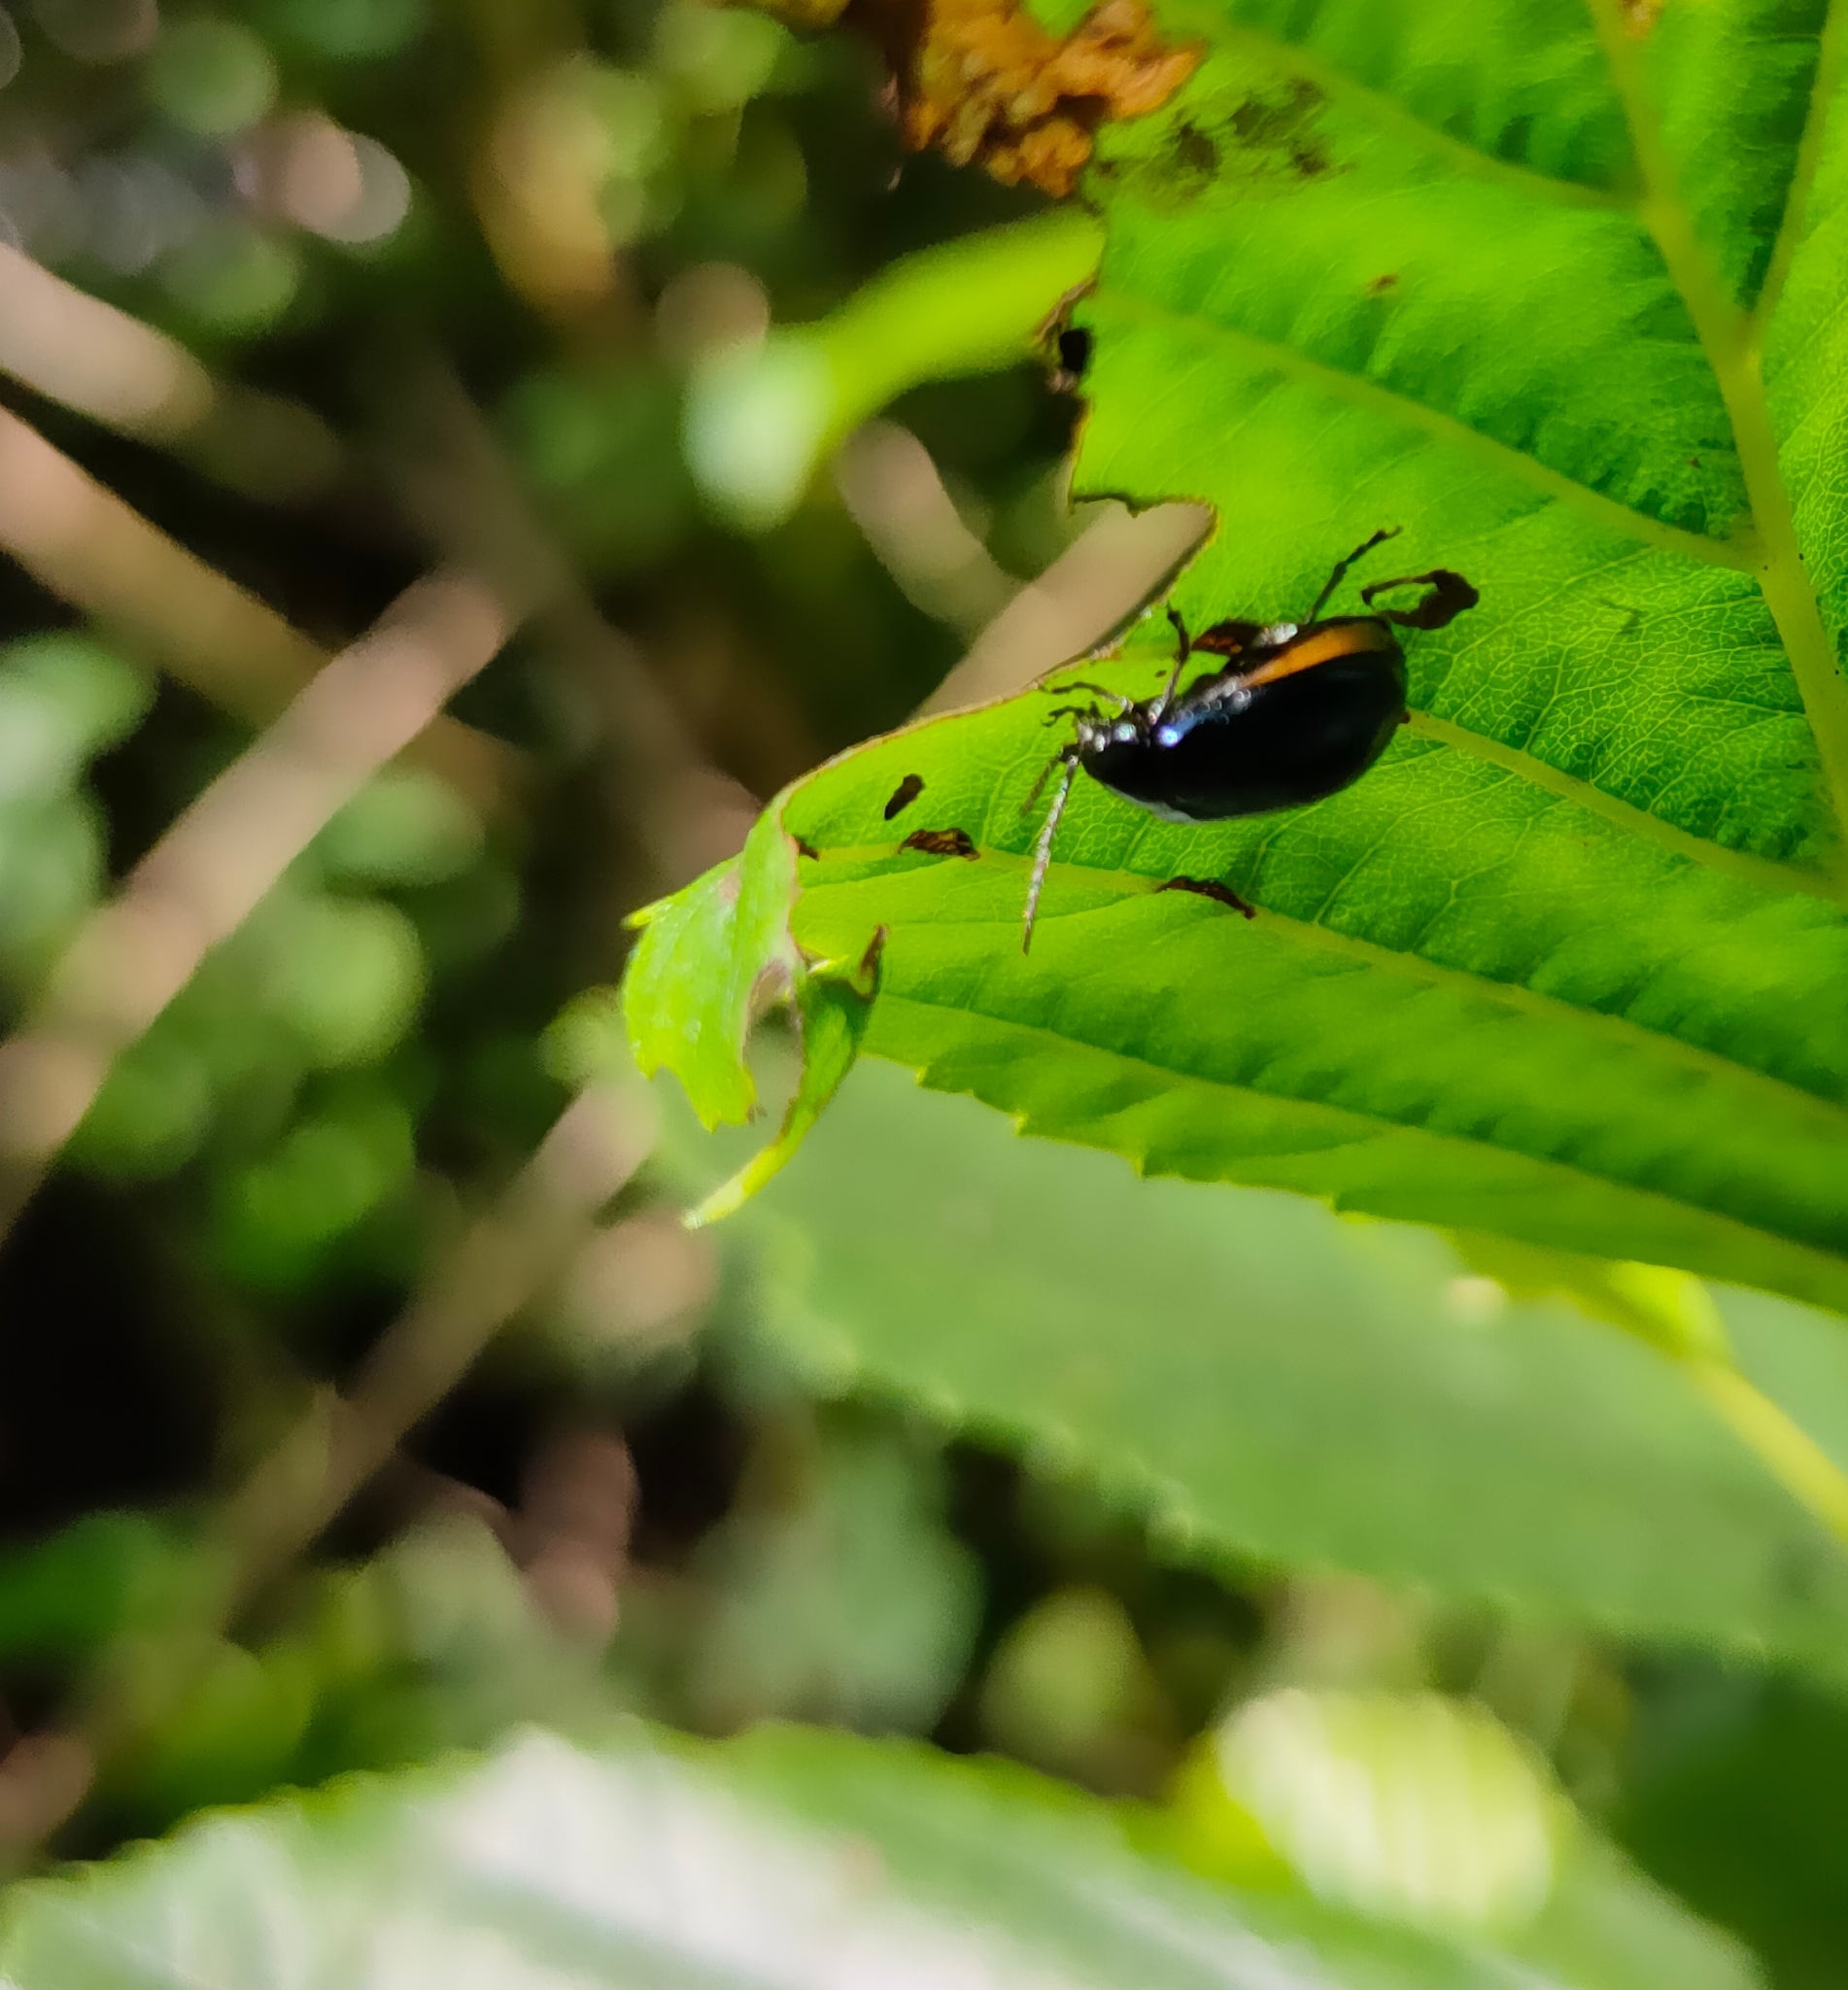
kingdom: Animalia
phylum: Arthropoda
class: Insecta
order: Coleoptera
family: Chrysomelidae
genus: Agelastica
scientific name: Agelastica alni
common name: Alder leaf beetle
